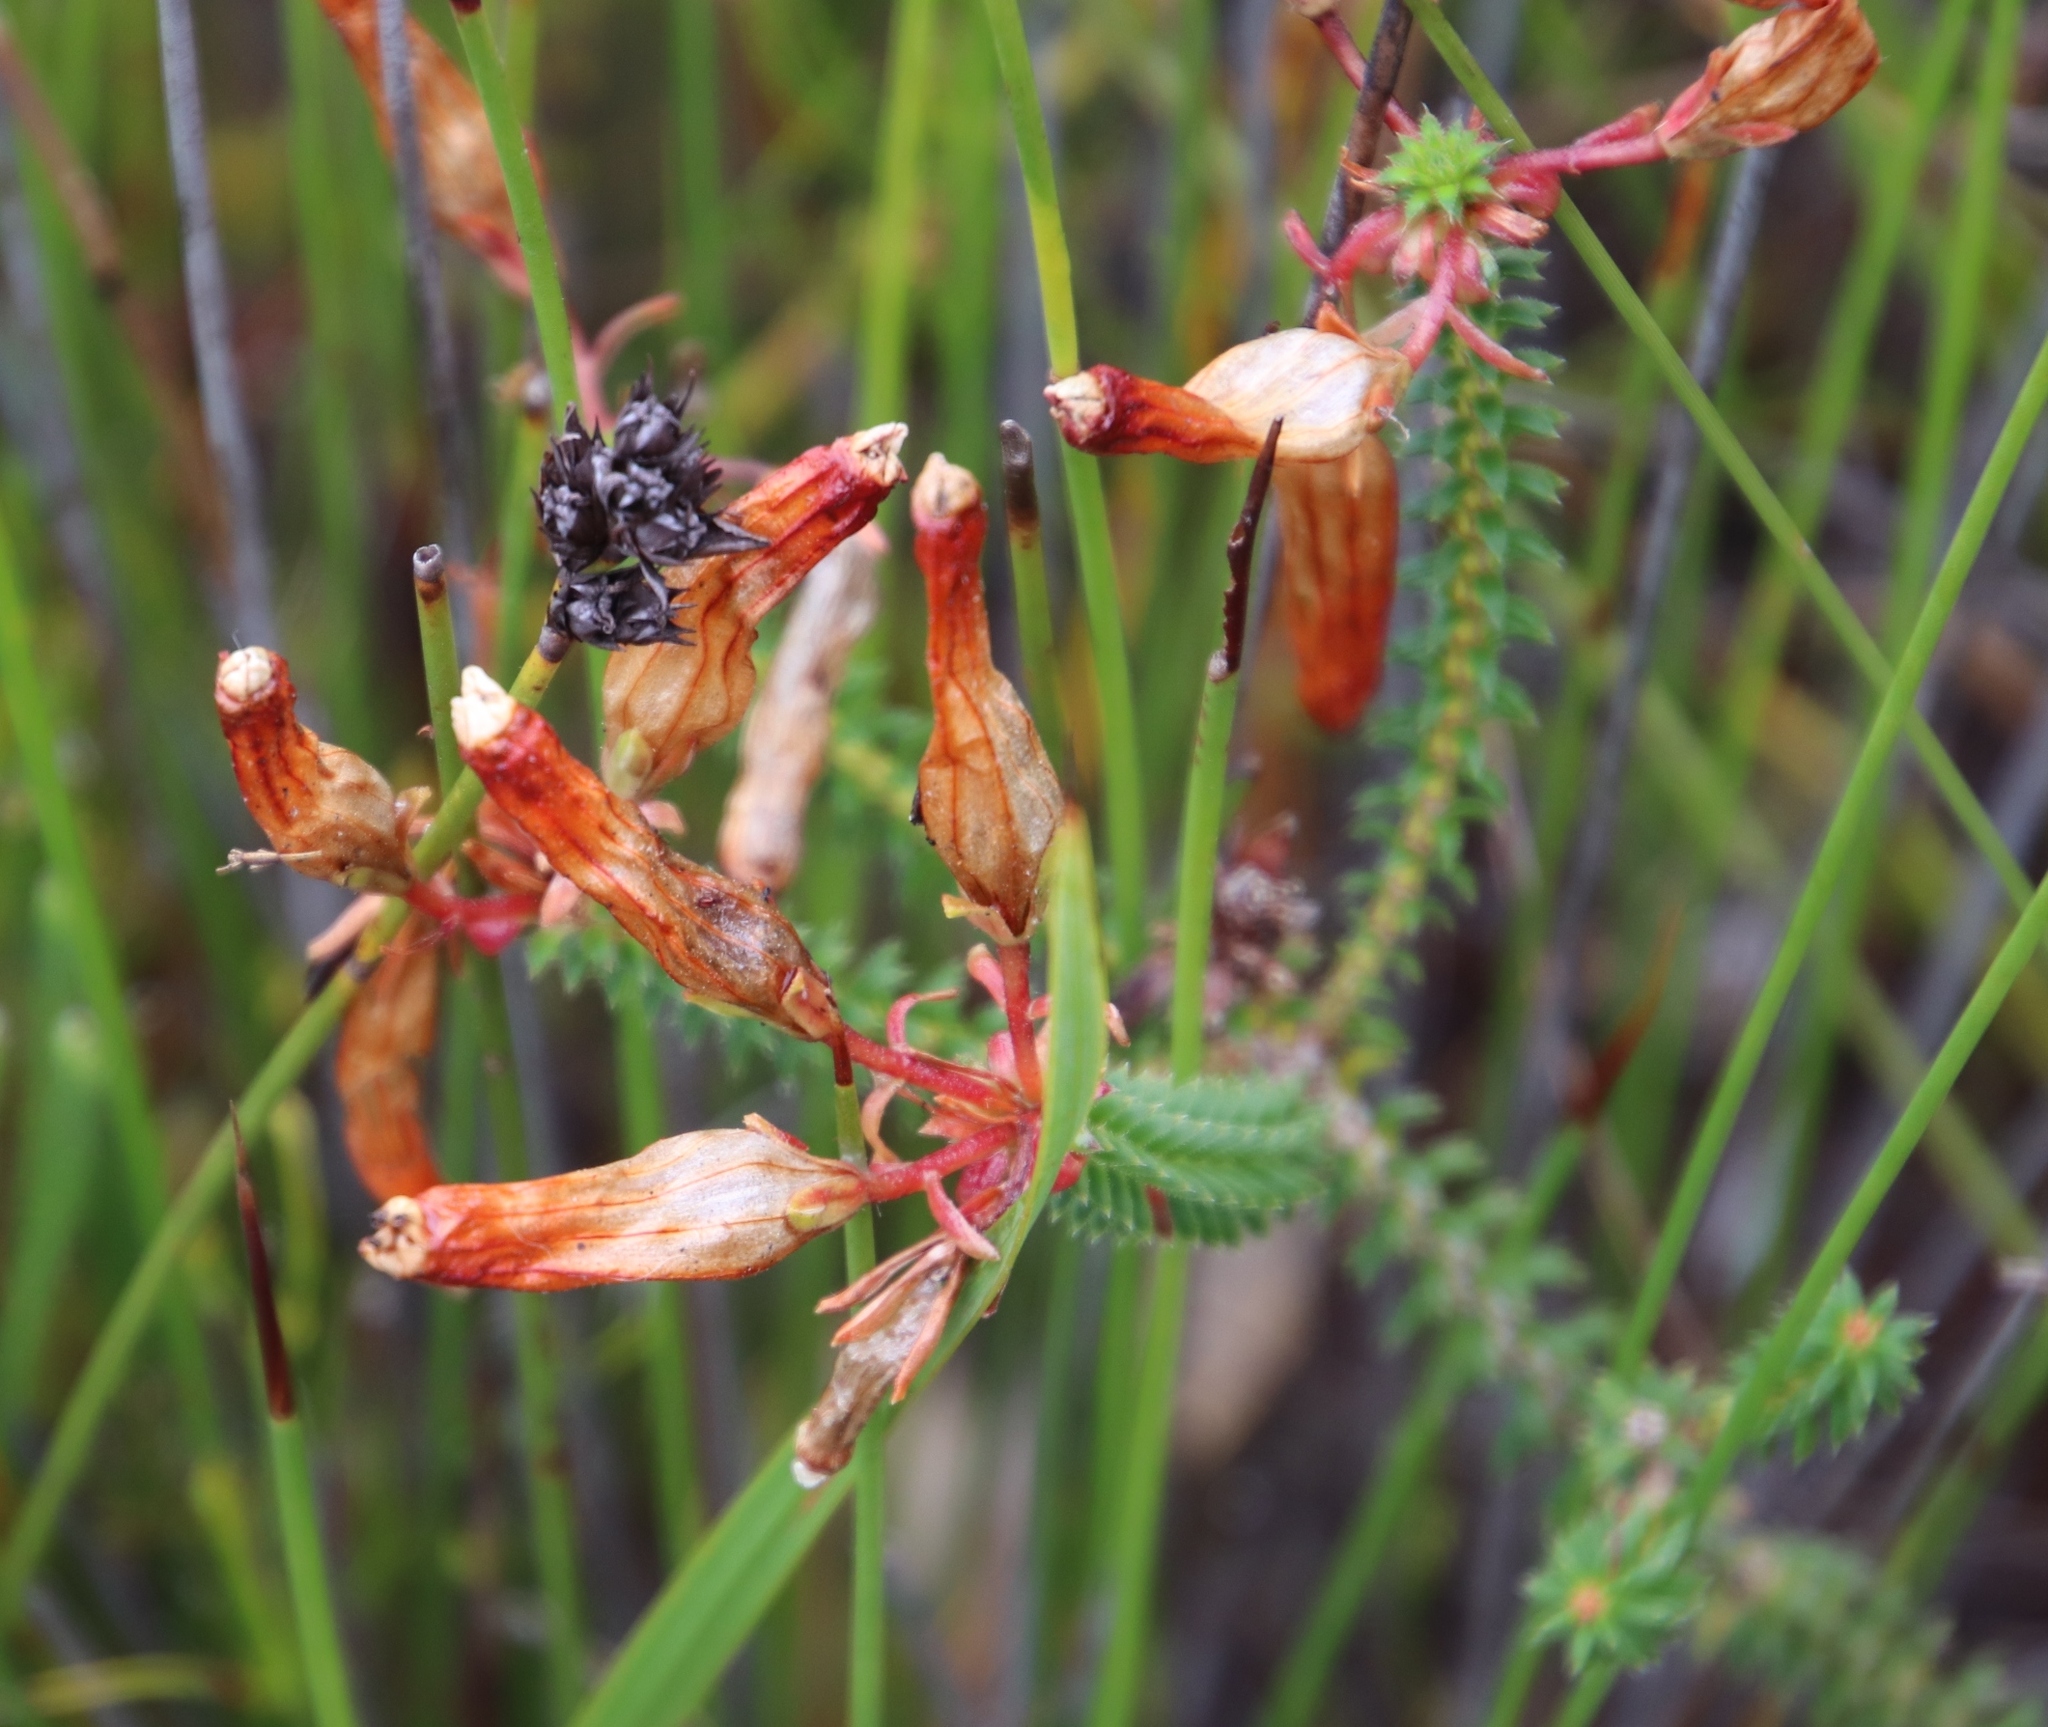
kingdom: Plantae
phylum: Tracheophyta
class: Magnoliopsida
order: Ericales
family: Ericaceae
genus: Erica
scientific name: Erica aristata
